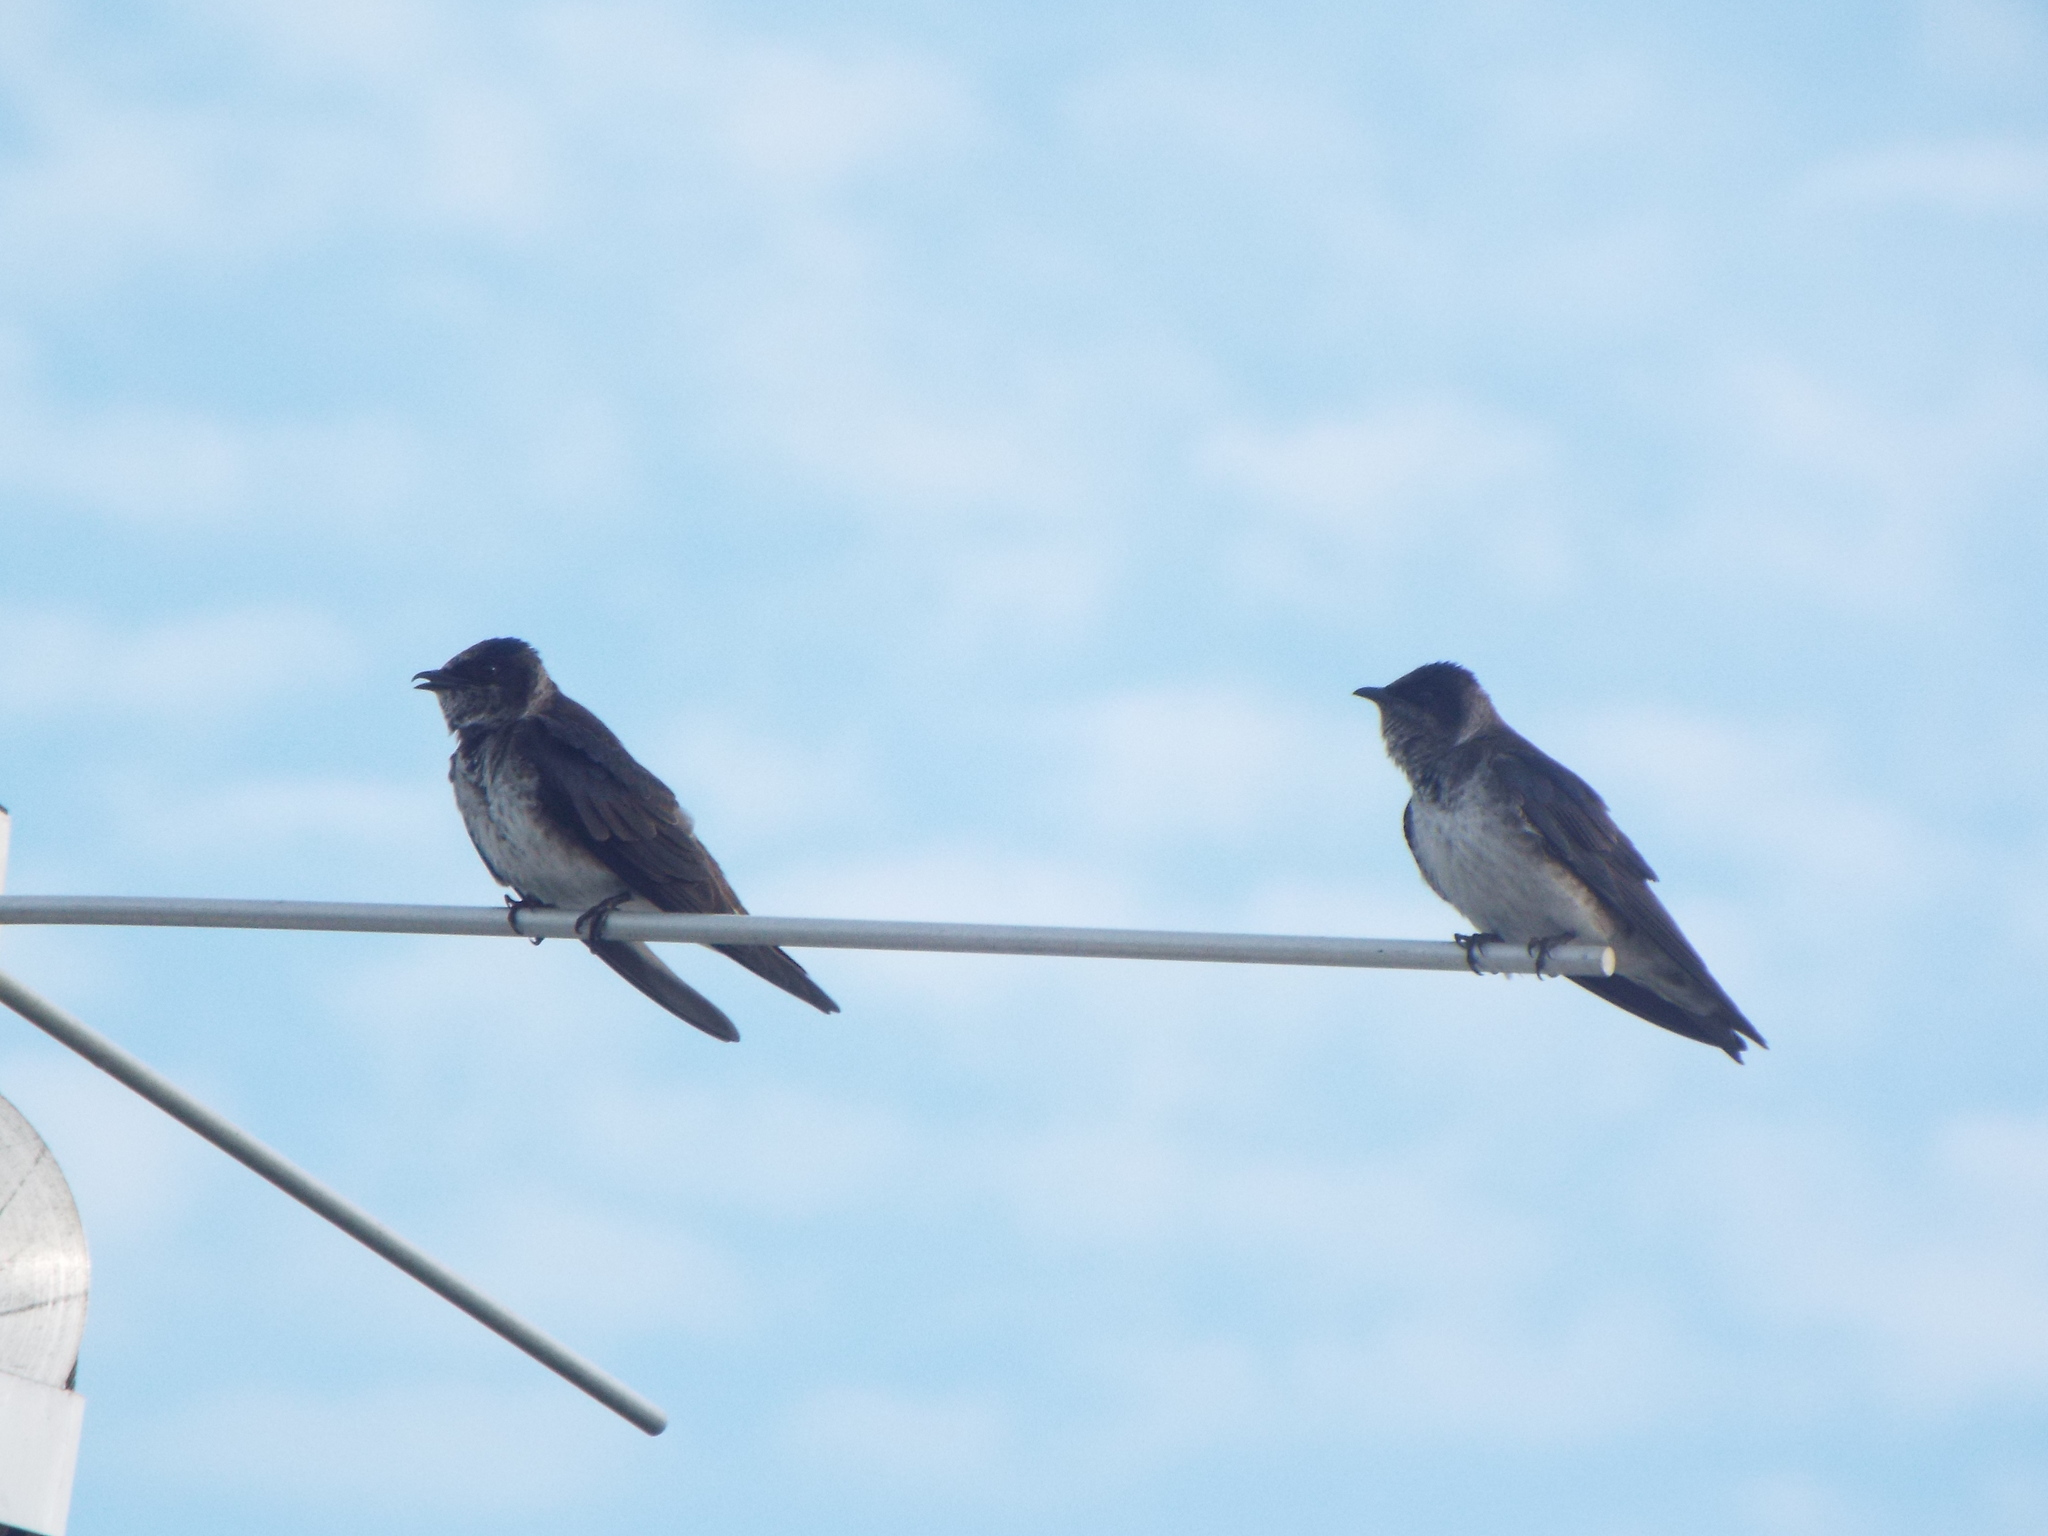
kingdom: Animalia
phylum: Chordata
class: Aves
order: Passeriformes
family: Hirundinidae
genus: Progne
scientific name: Progne subis
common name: Purple martin
